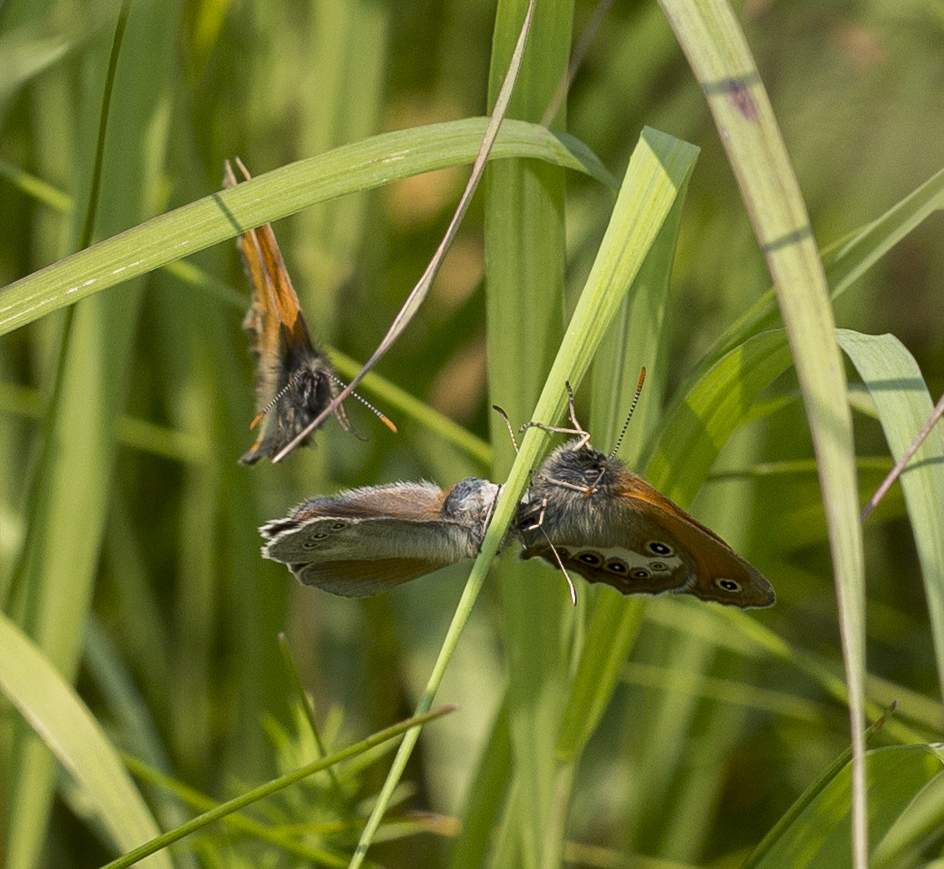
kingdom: Animalia
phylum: Arthropoda
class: Insecta
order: Lepidoptera
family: Nymphalidae
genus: Coenonympha
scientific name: Coenonympha iphis
